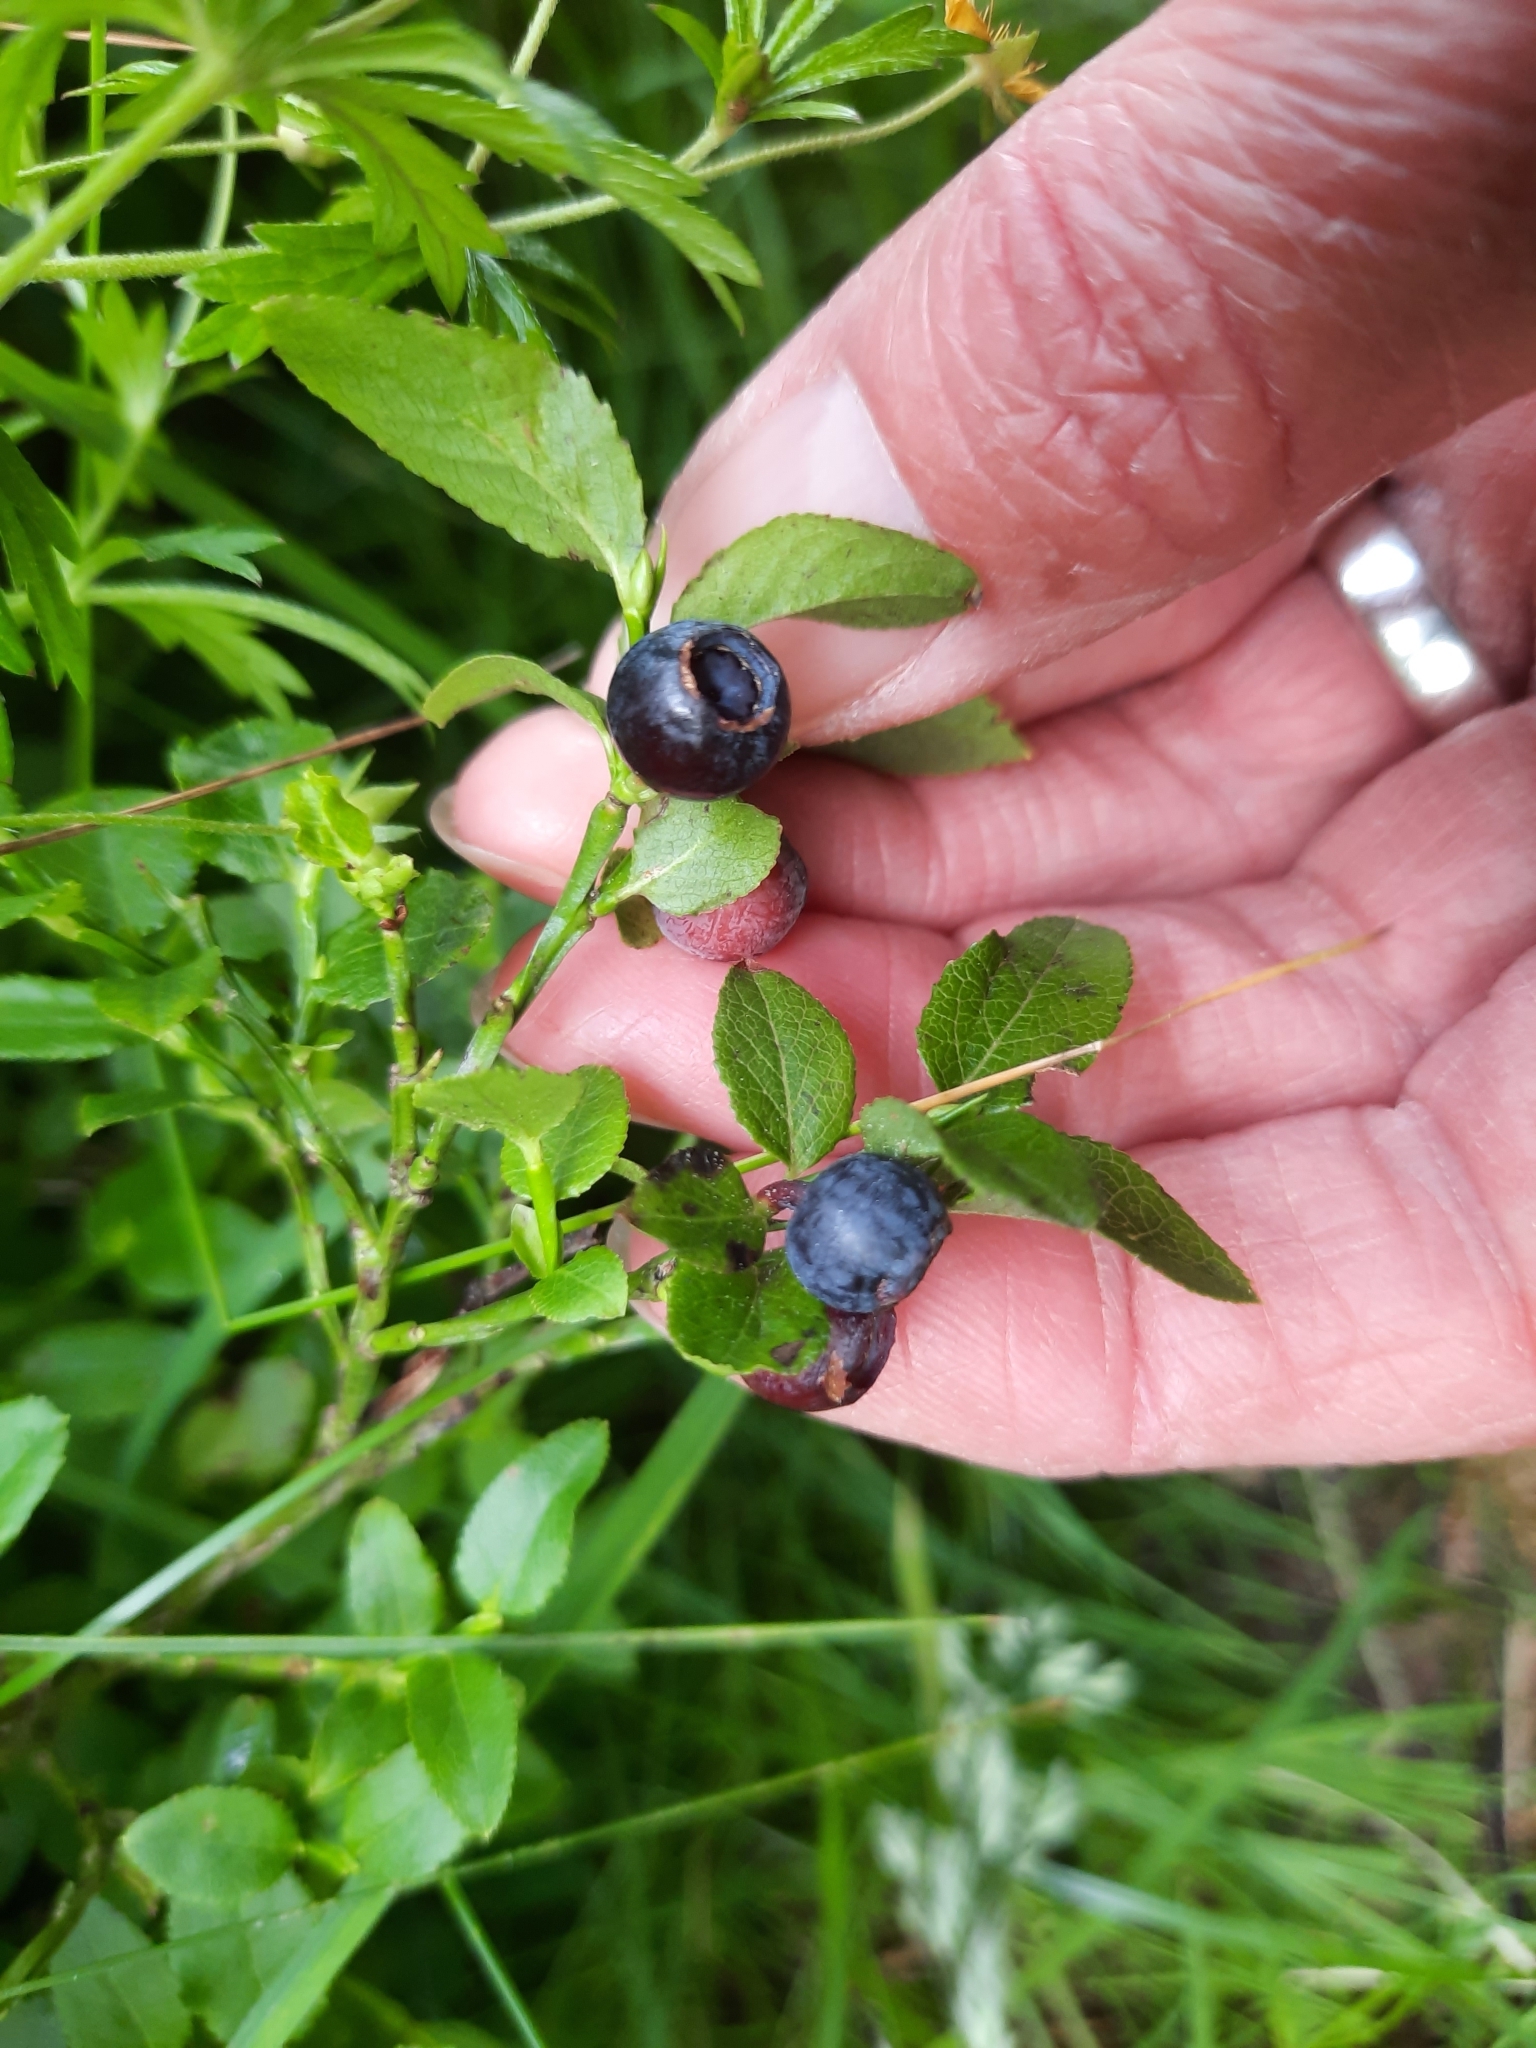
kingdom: Plantae
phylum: Tracheophyta
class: Magnoliopsida
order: Ericales
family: Ericaceae
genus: Vaccinium
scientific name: Vaccinium myrtillus
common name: Bilberry
